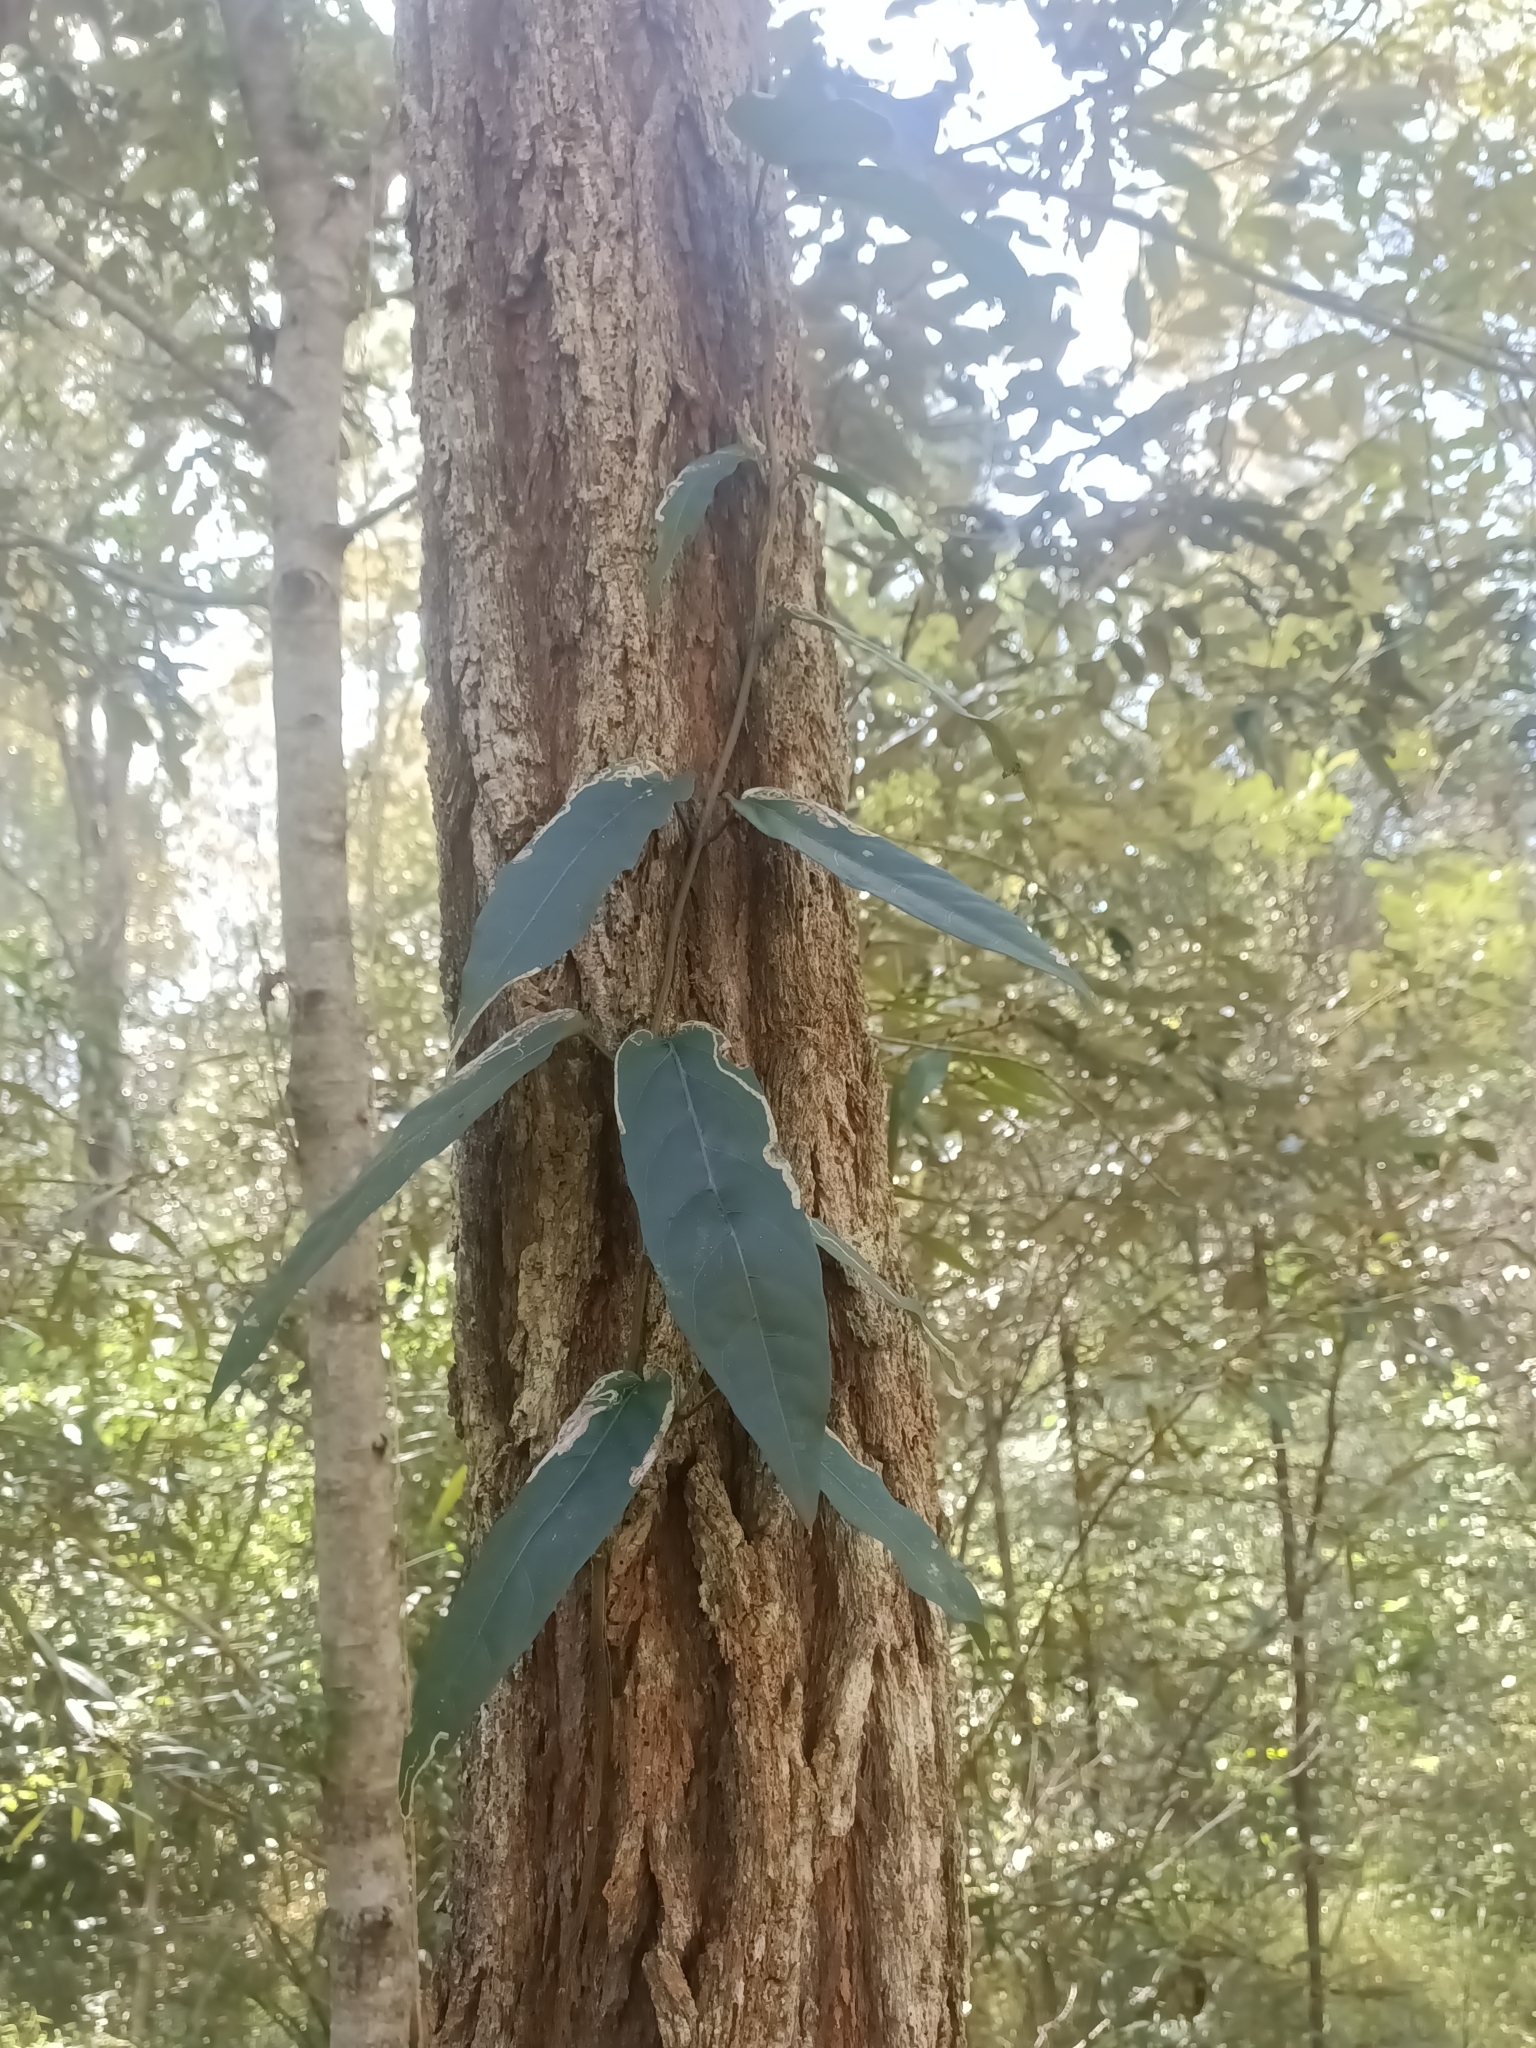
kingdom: Plantae
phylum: Tracheophyta
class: Magnoliopsida
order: Gentianales
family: Apocynaceae
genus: Parsonsia
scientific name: Parsonsia straminea
